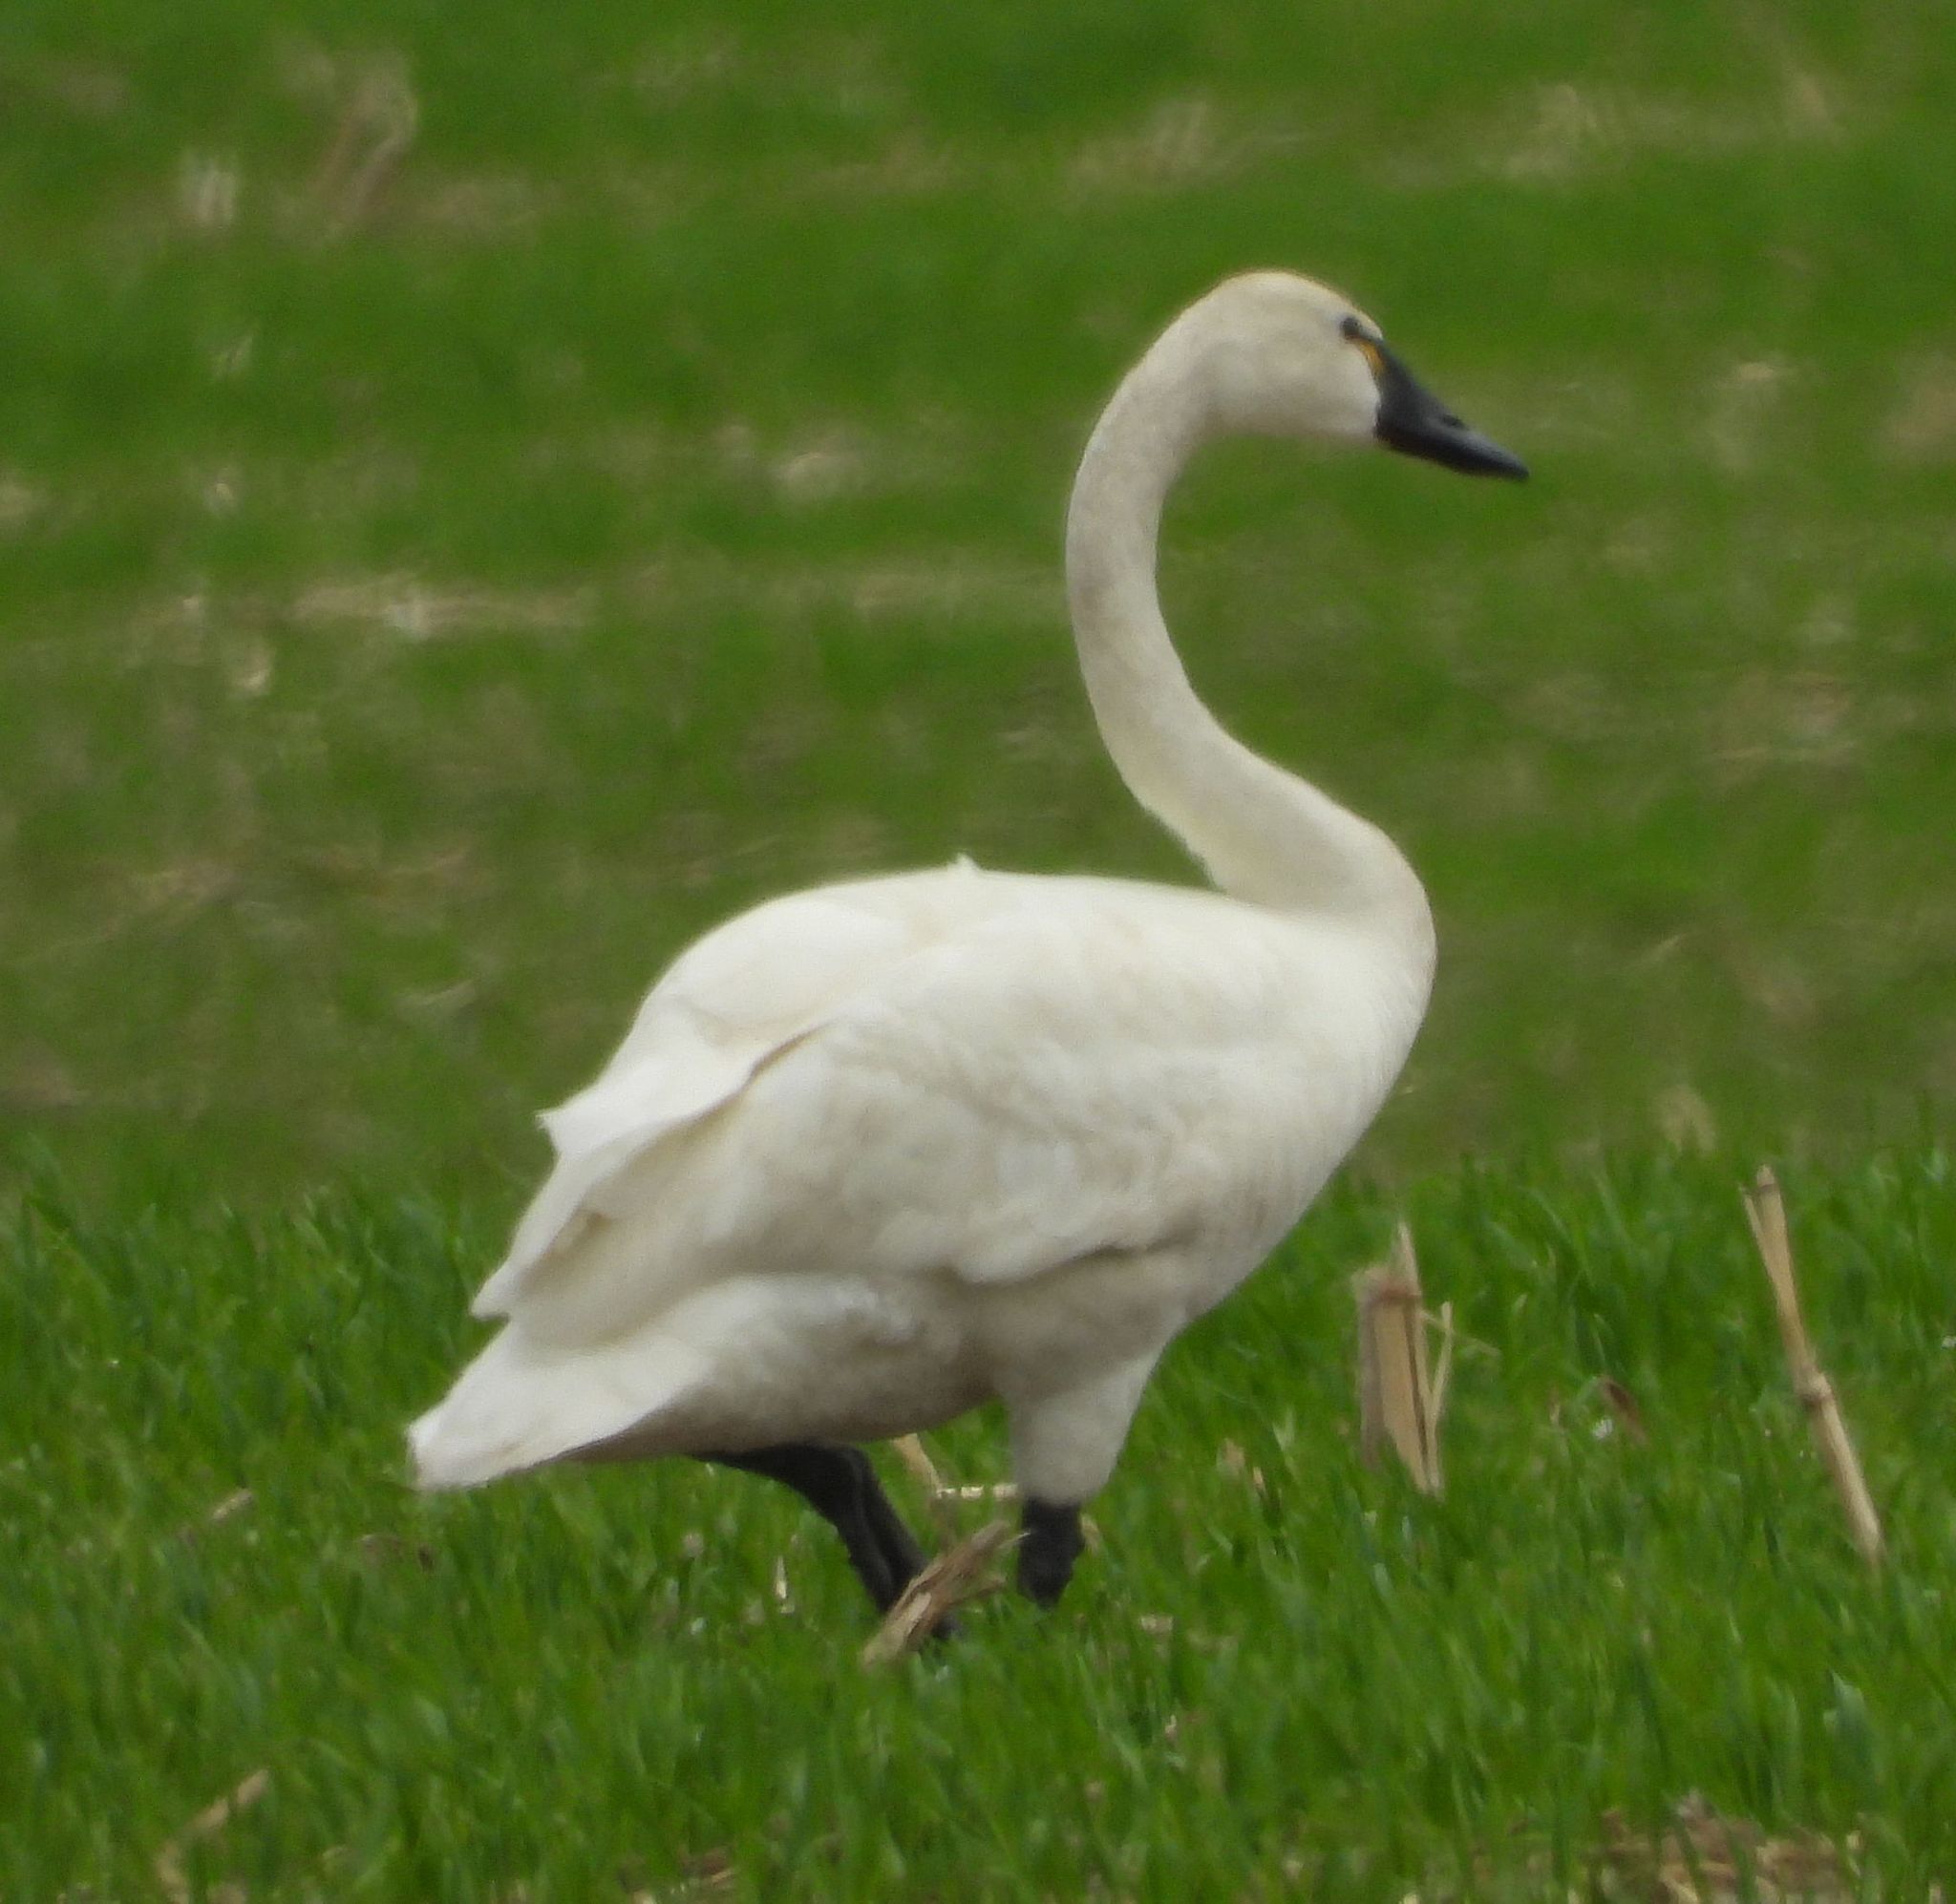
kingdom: Animalia
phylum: Chordata
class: Aves
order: Anseriformes
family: Anatidae
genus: Cygnus
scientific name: Cygnus columbianus
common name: Tundra swan
